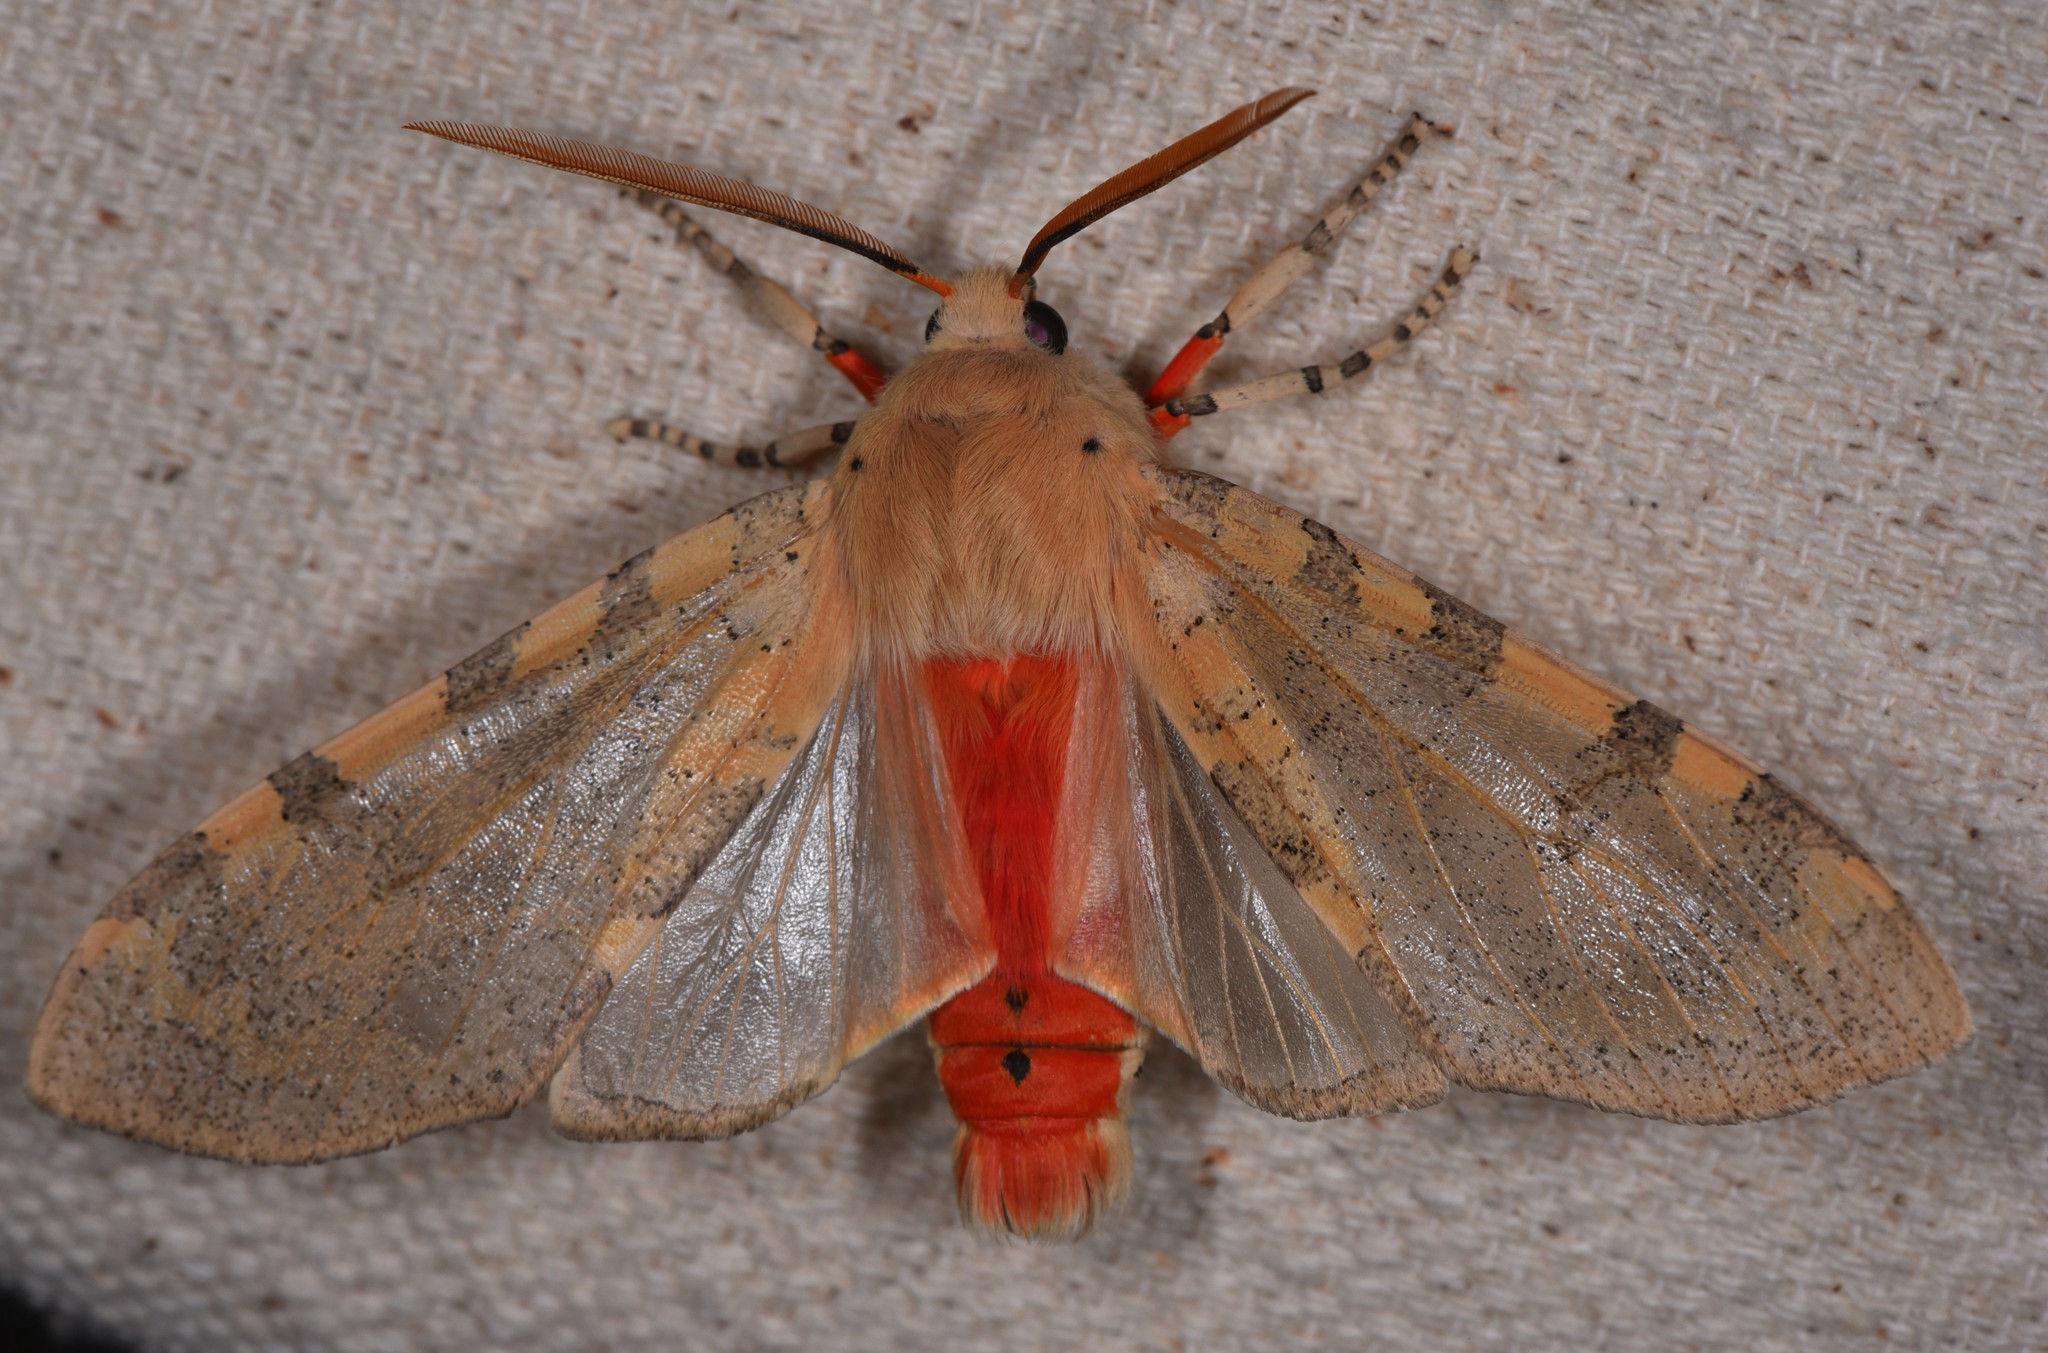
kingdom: Animalia
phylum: Arthropoda
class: Insecta
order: Lepidoptera
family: Erebidae
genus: Hemihyalea
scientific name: Hemihyalea edwardsii
